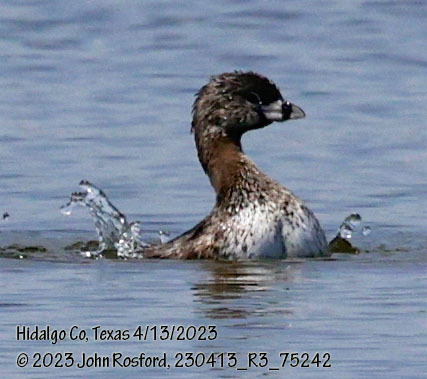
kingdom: Animalia
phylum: Chordata
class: Aves
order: Podicipediformes
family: Podicipedidae
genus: Podilymbus
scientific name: Podilymbus podiceps
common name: Pied-billed grebe
